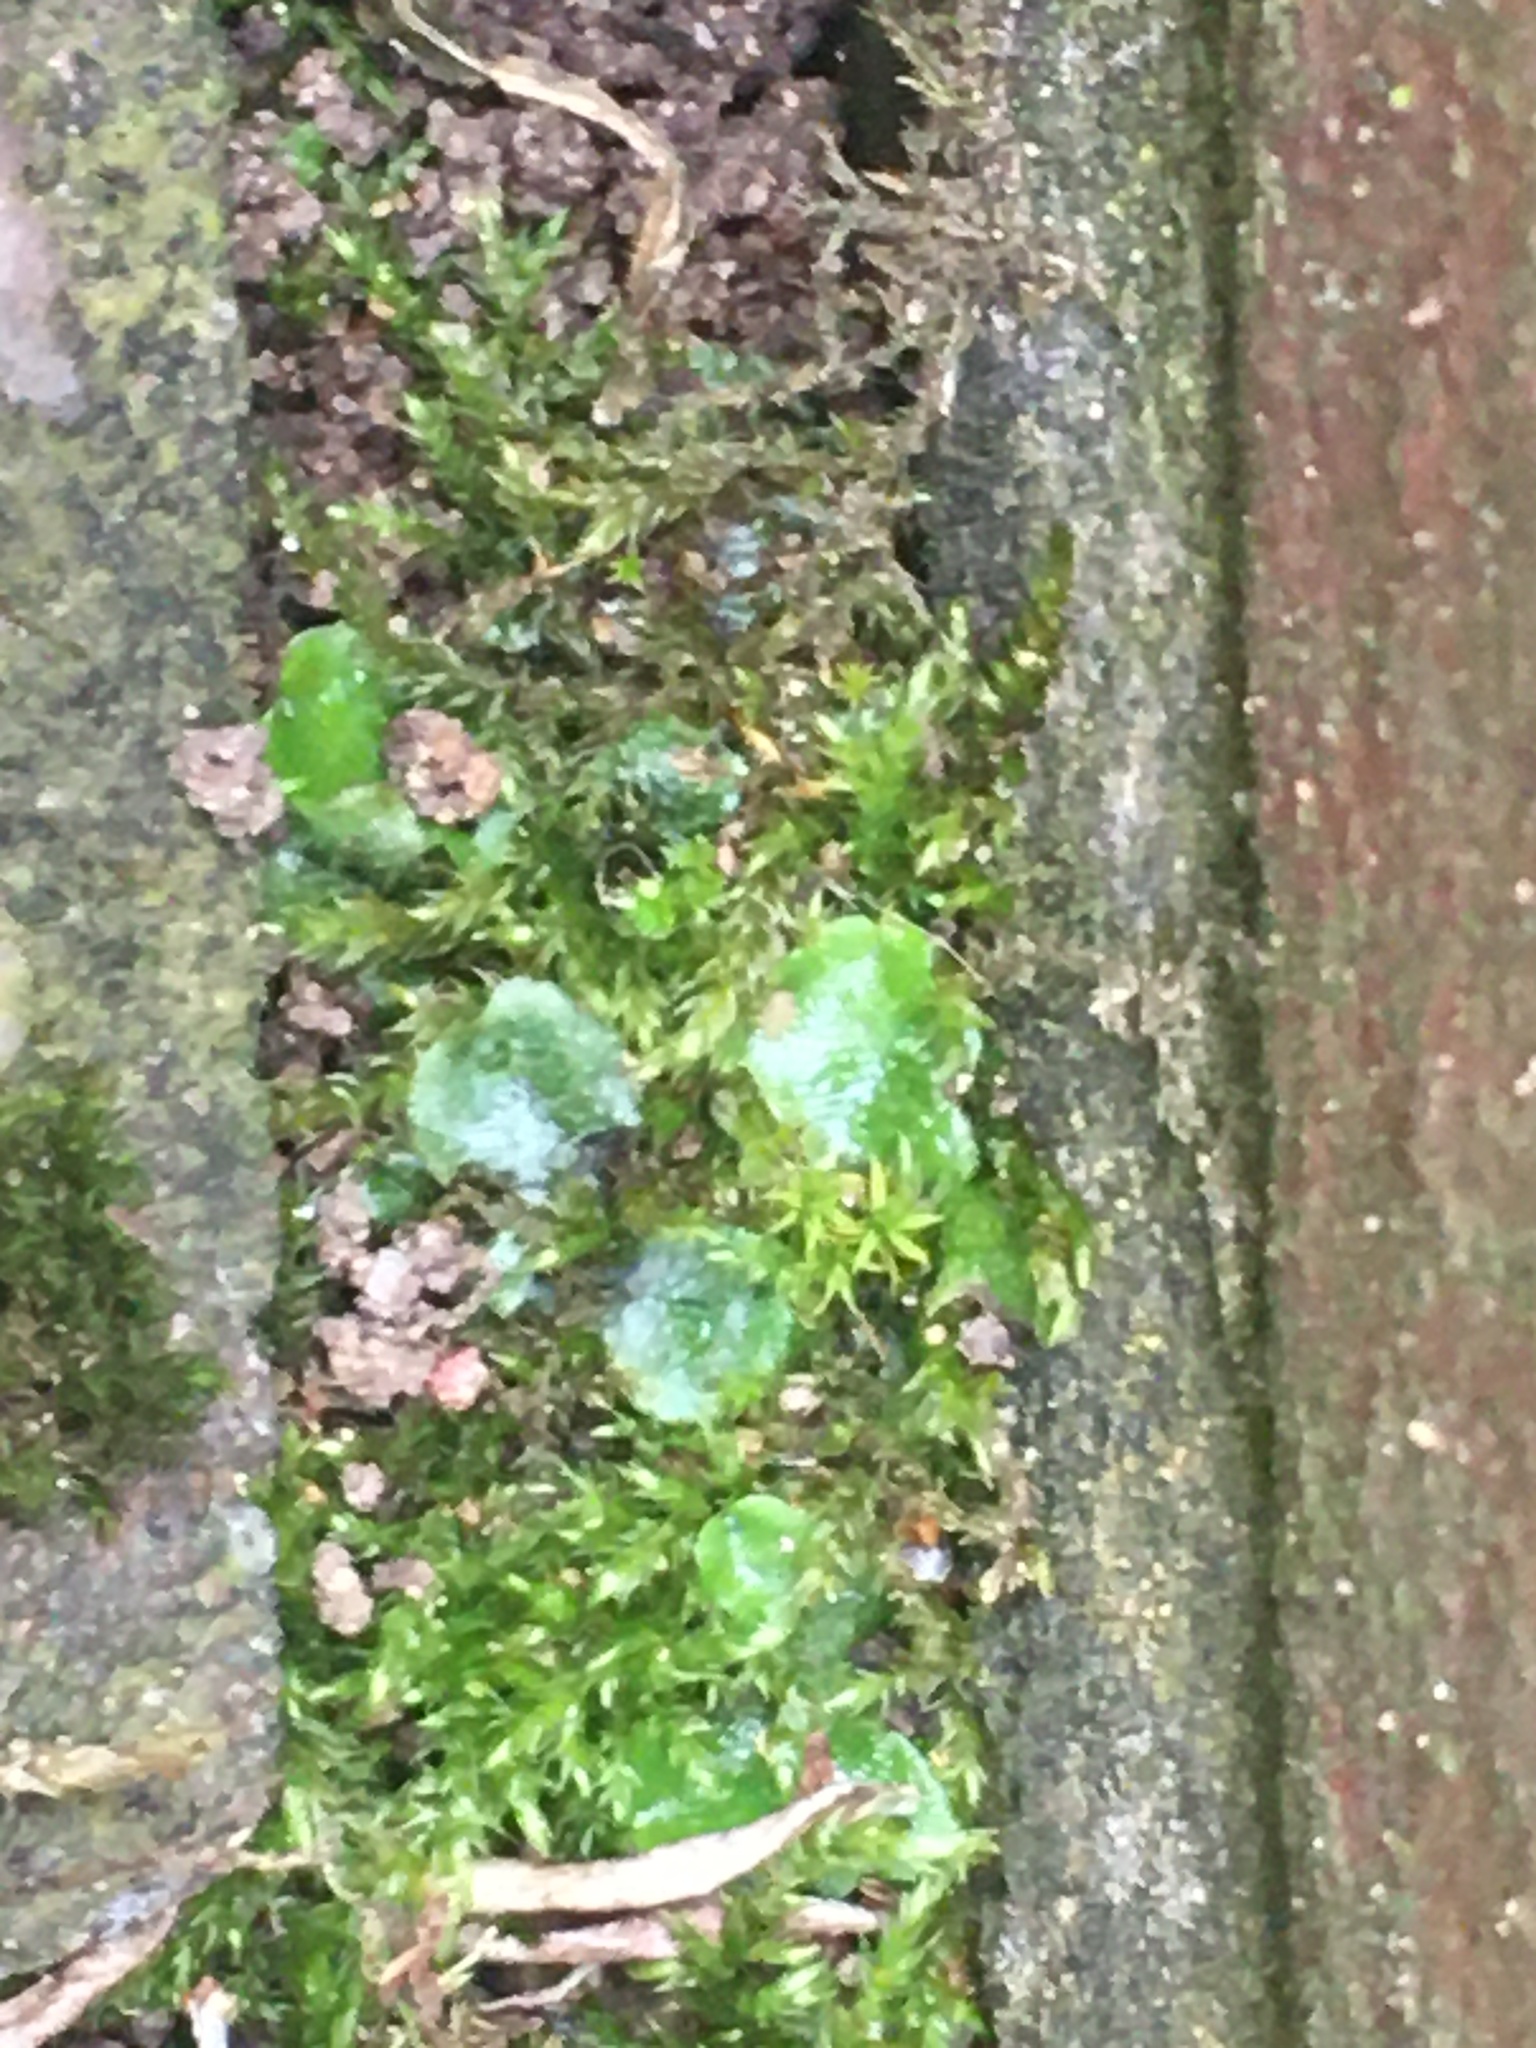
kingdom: Plantae
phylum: Marchantiophyta
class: Marchantiopsida
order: Lunulariales
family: Lunulariaceae
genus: Lunularia
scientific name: Lunularia cruciata
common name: Crescent-cup liverwort
